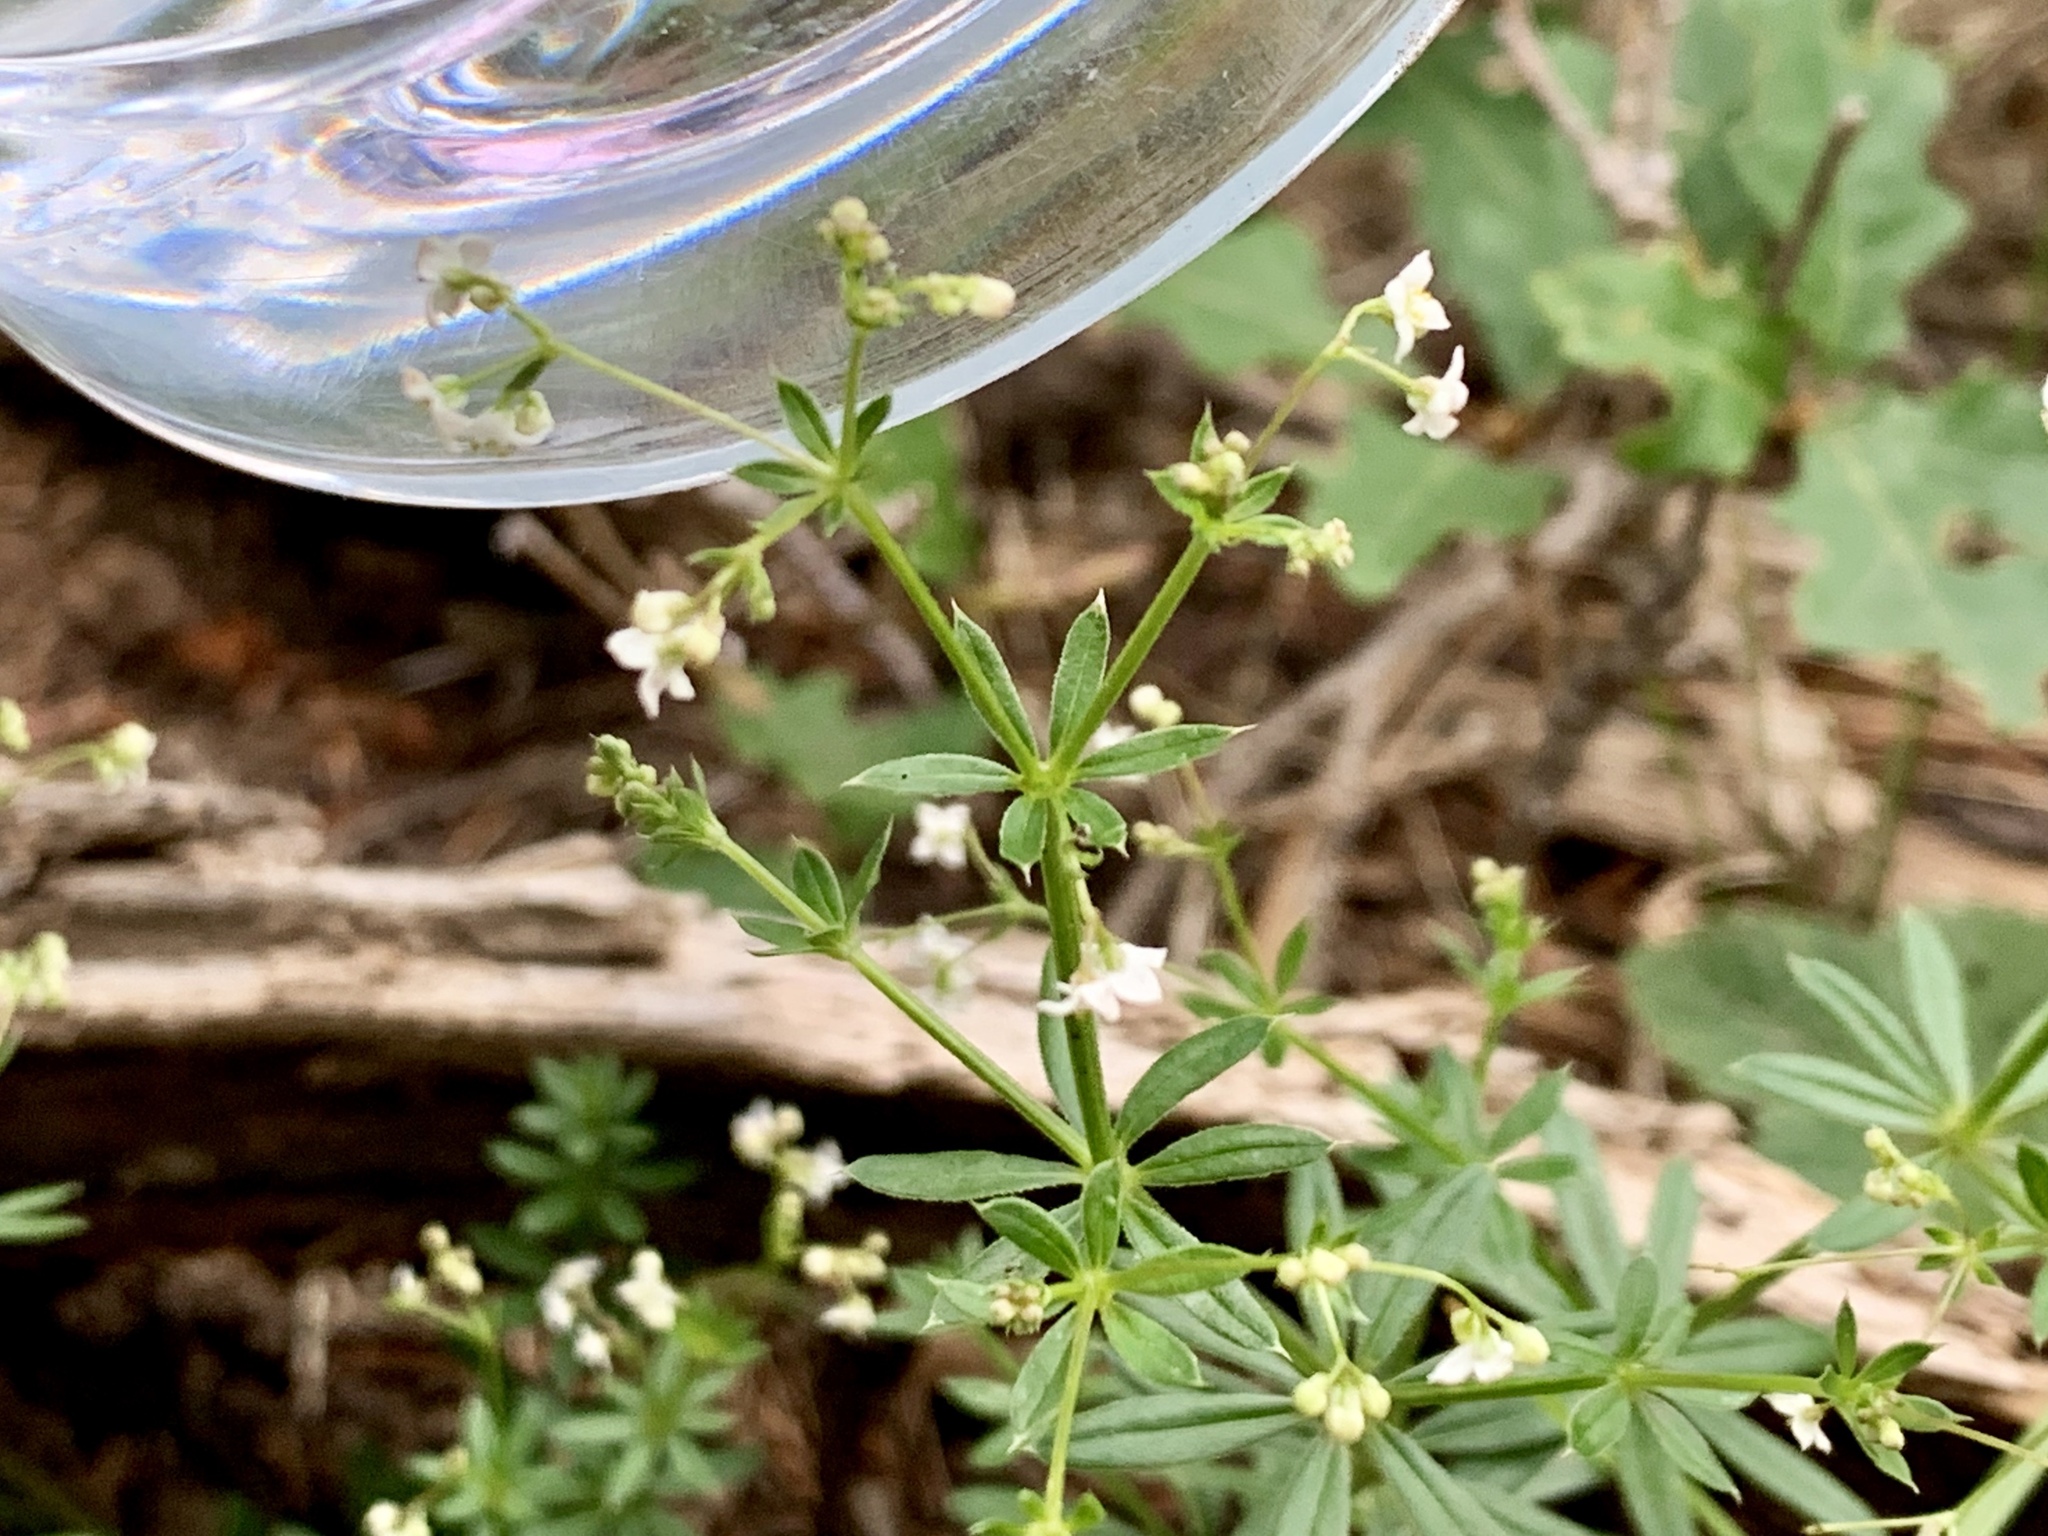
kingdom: Plantae
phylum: Tracheophyta
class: Magnoliopsida
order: Gentianales
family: Rubiaceae
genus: Galium
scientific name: Galium mexicanum
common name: Mexican bedstraw
